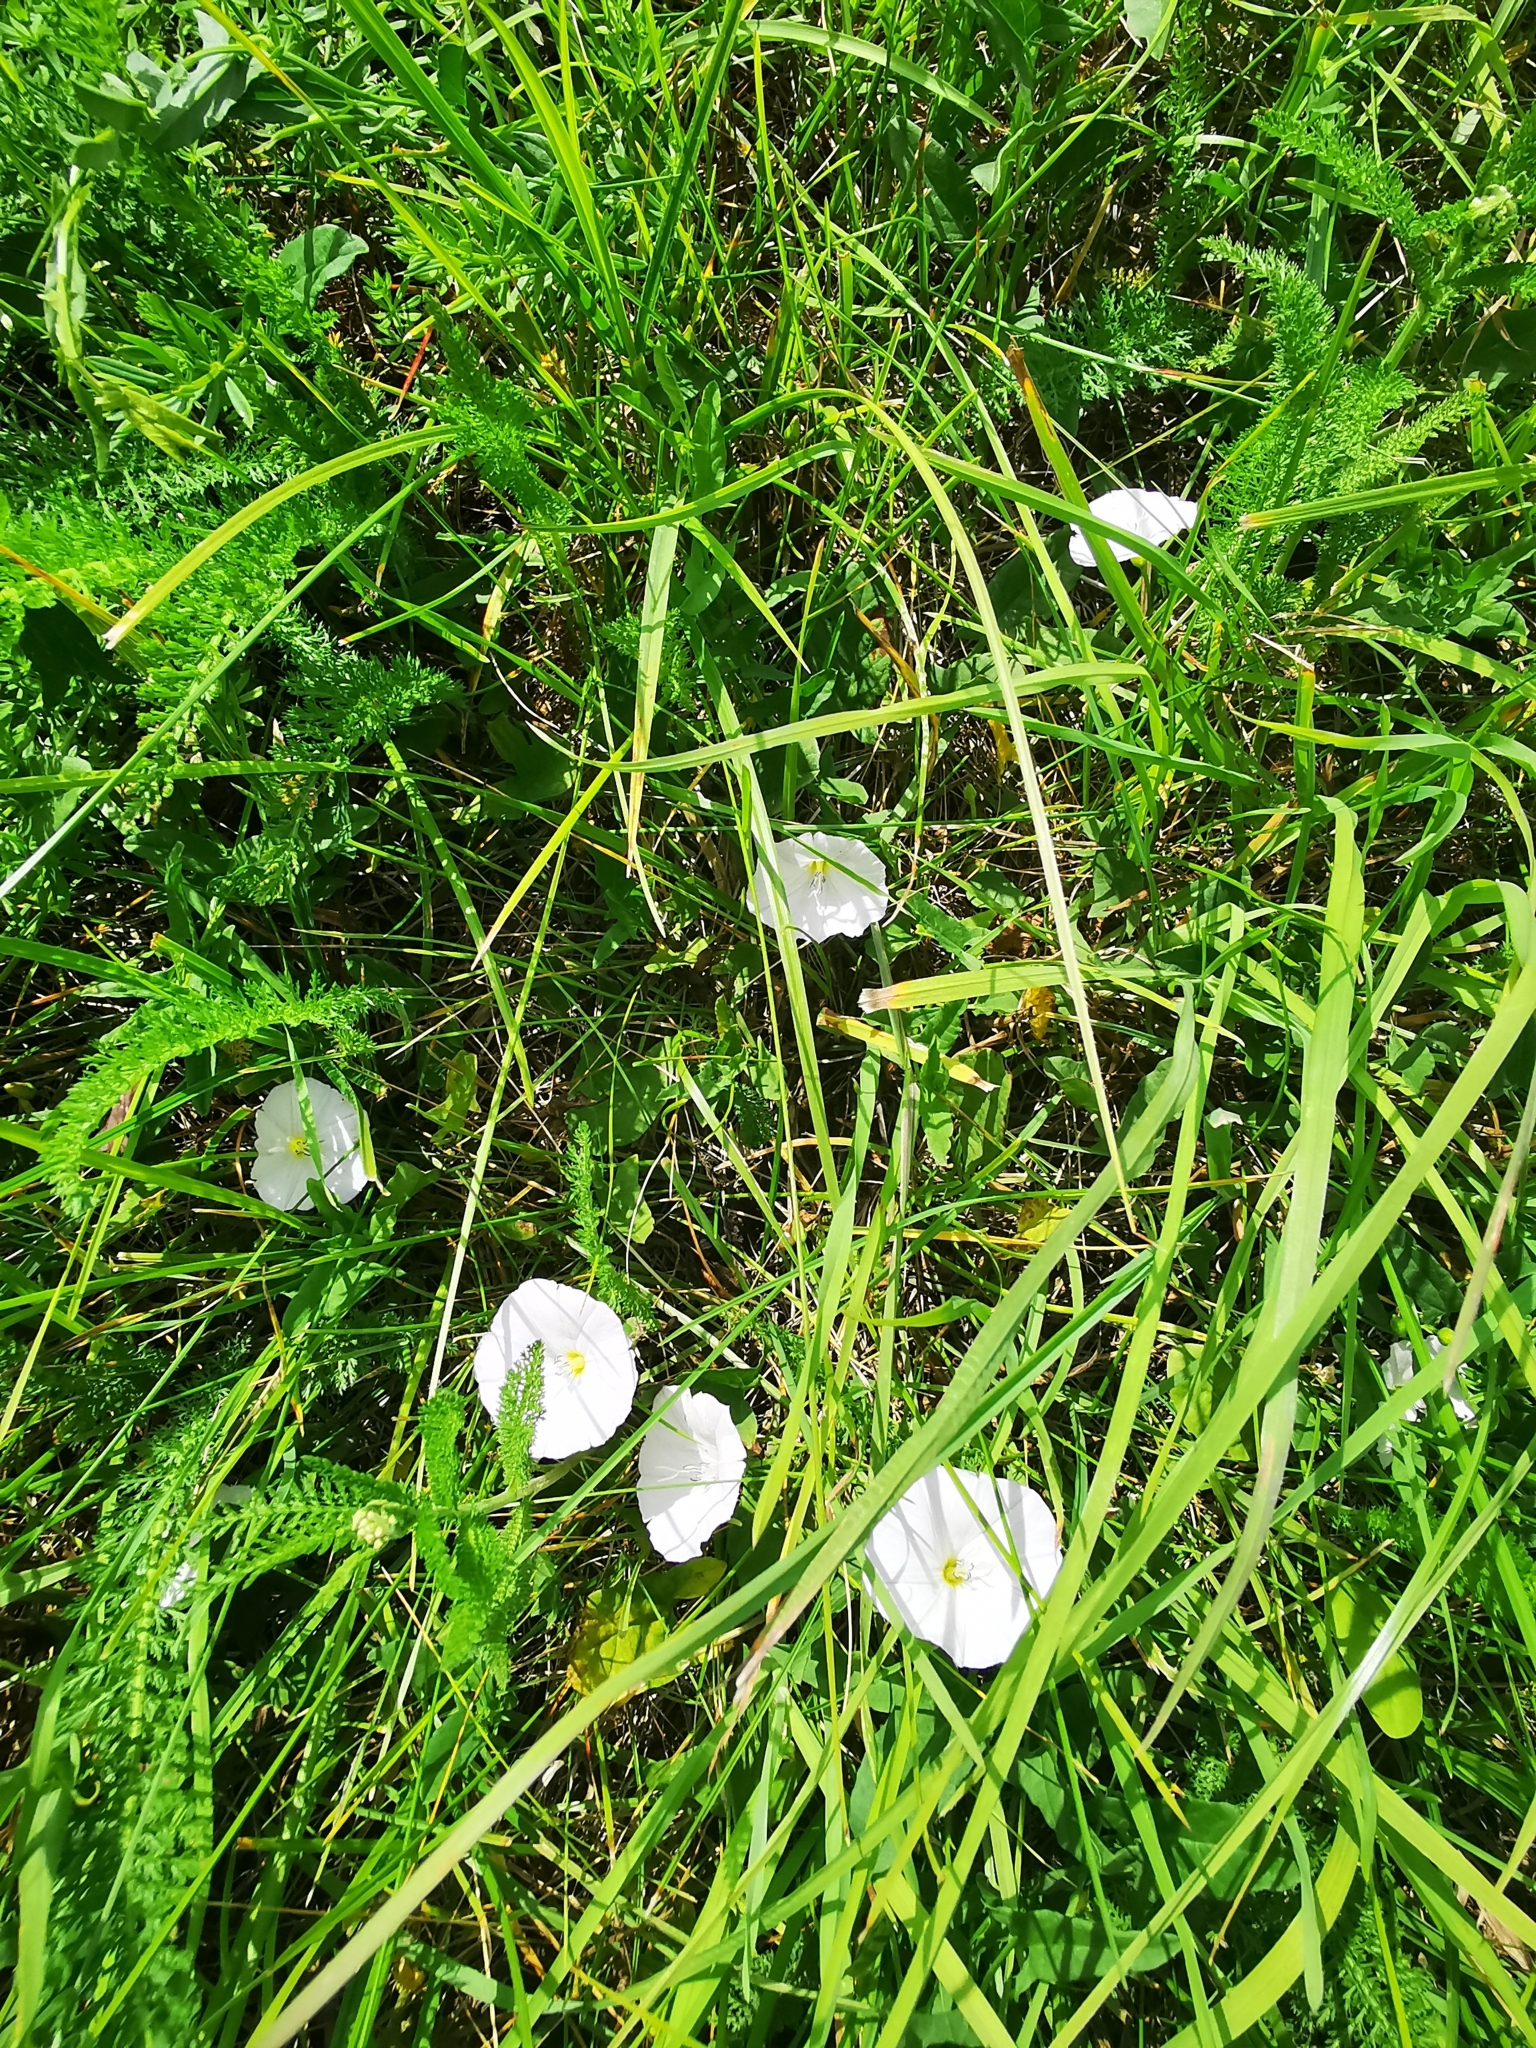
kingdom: Plantae
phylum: Tracheophyta
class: Magnoliopsida
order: Solanales
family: Convolvulaceae
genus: Convolvulus
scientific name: Convolvulus arvensis
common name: Field bindweed
